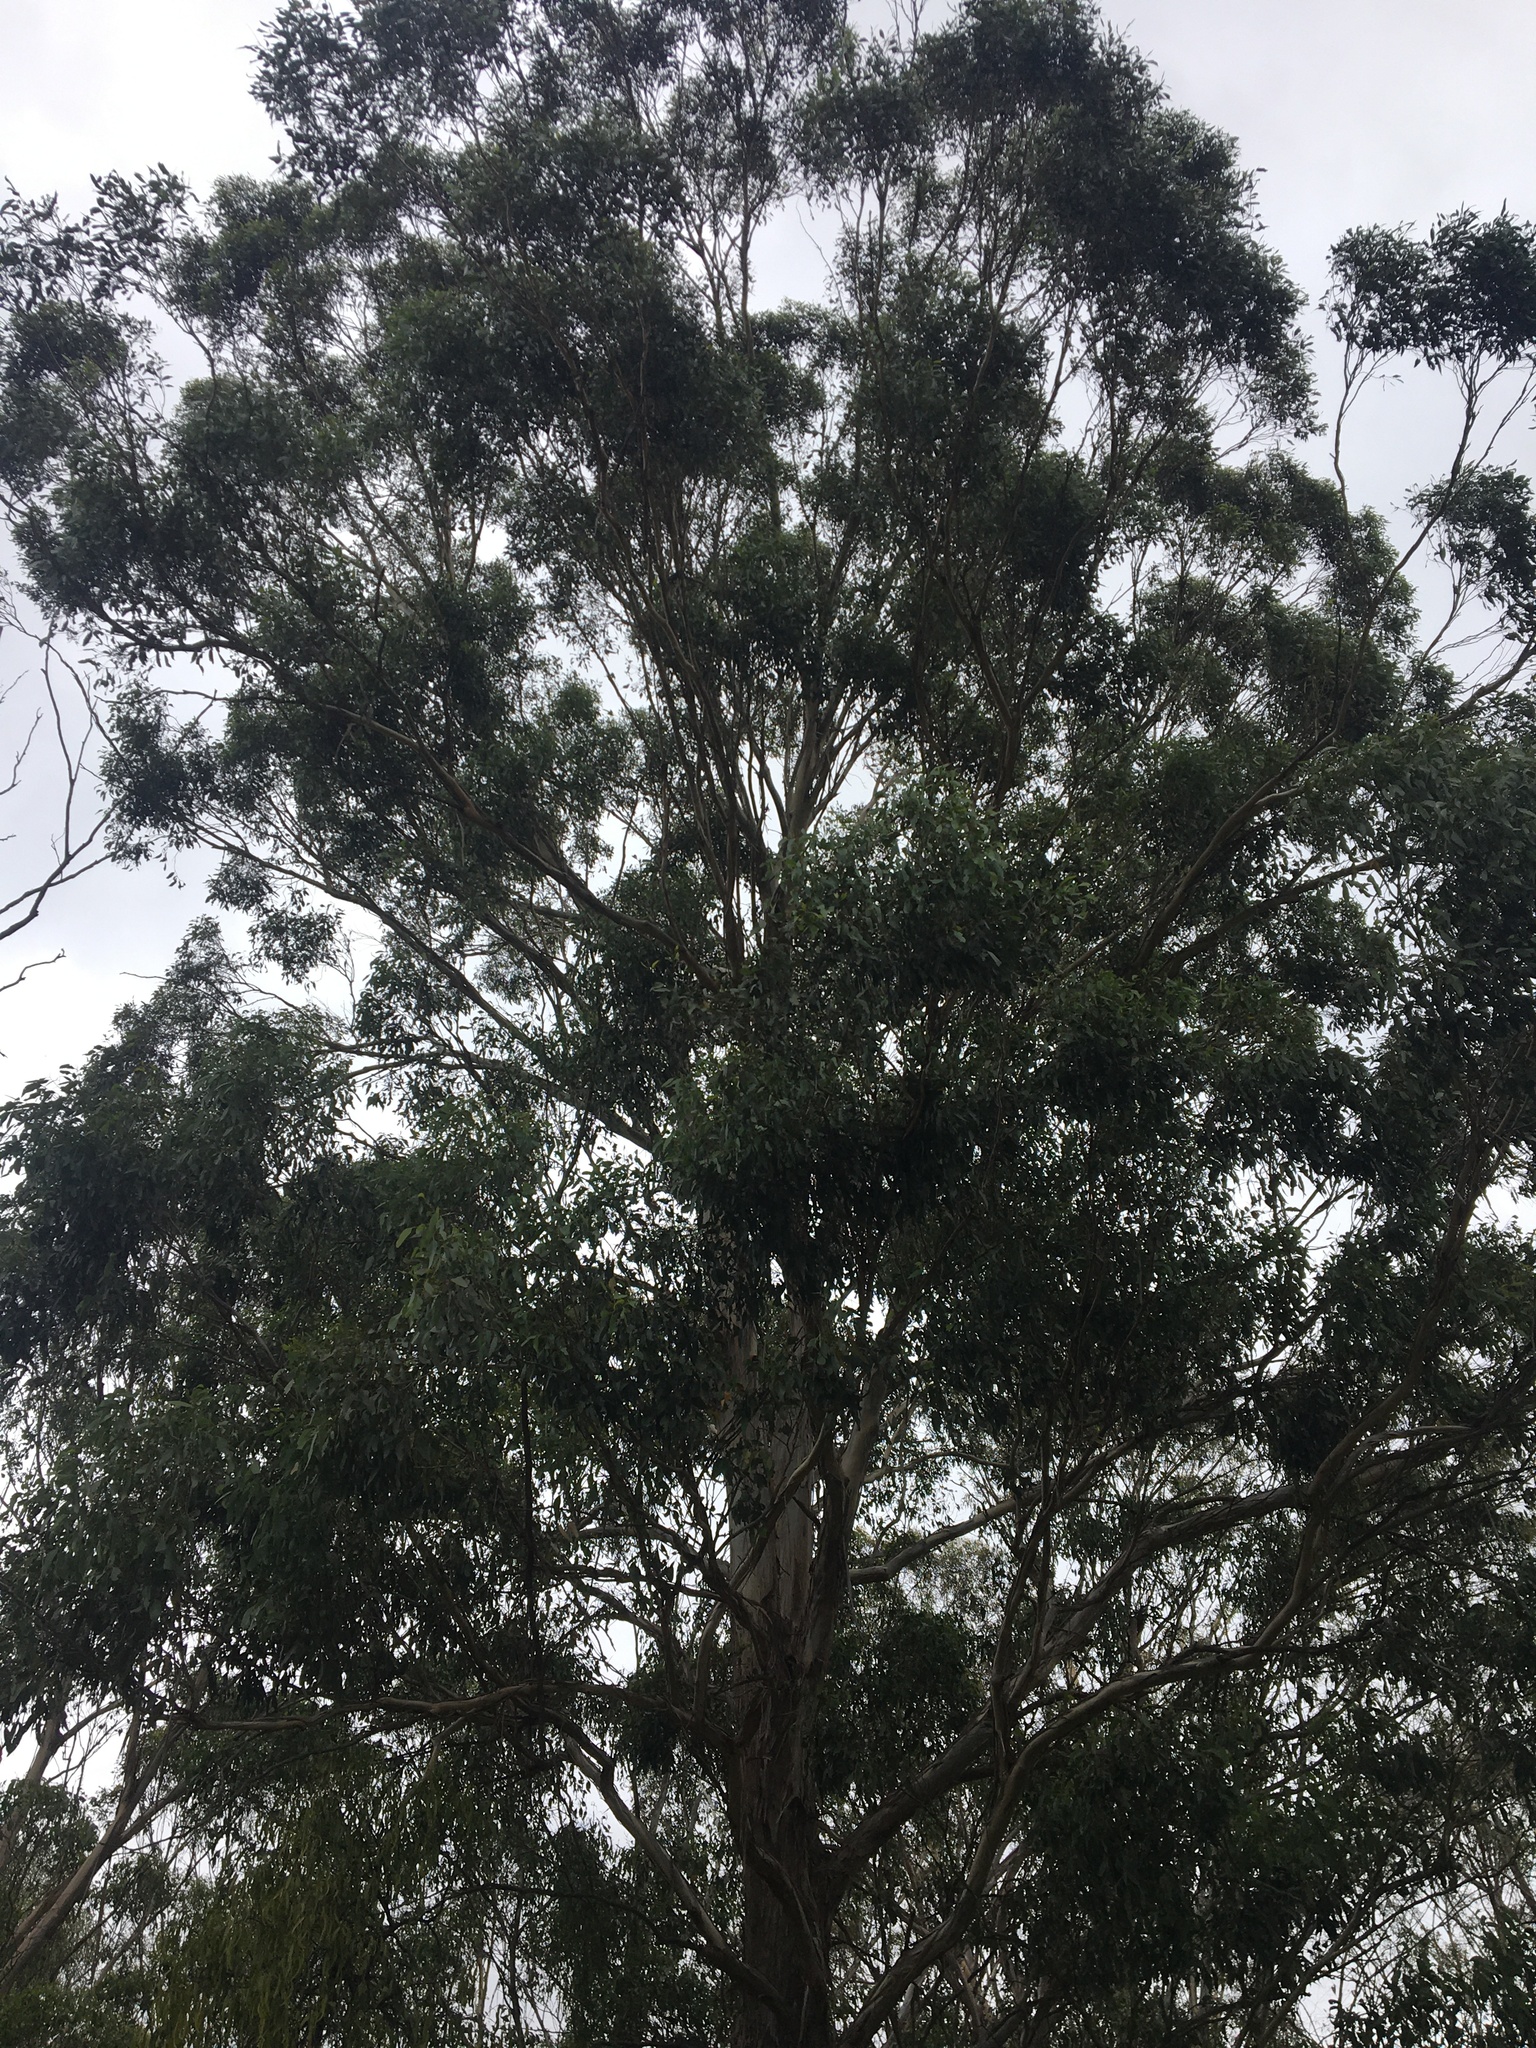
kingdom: Plantae
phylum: Tracheophyta
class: Magnoliopsida
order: Myrtales
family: Myrtaceae
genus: Eucalyptus
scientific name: Eucalyptus moluccana
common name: Grey-box
